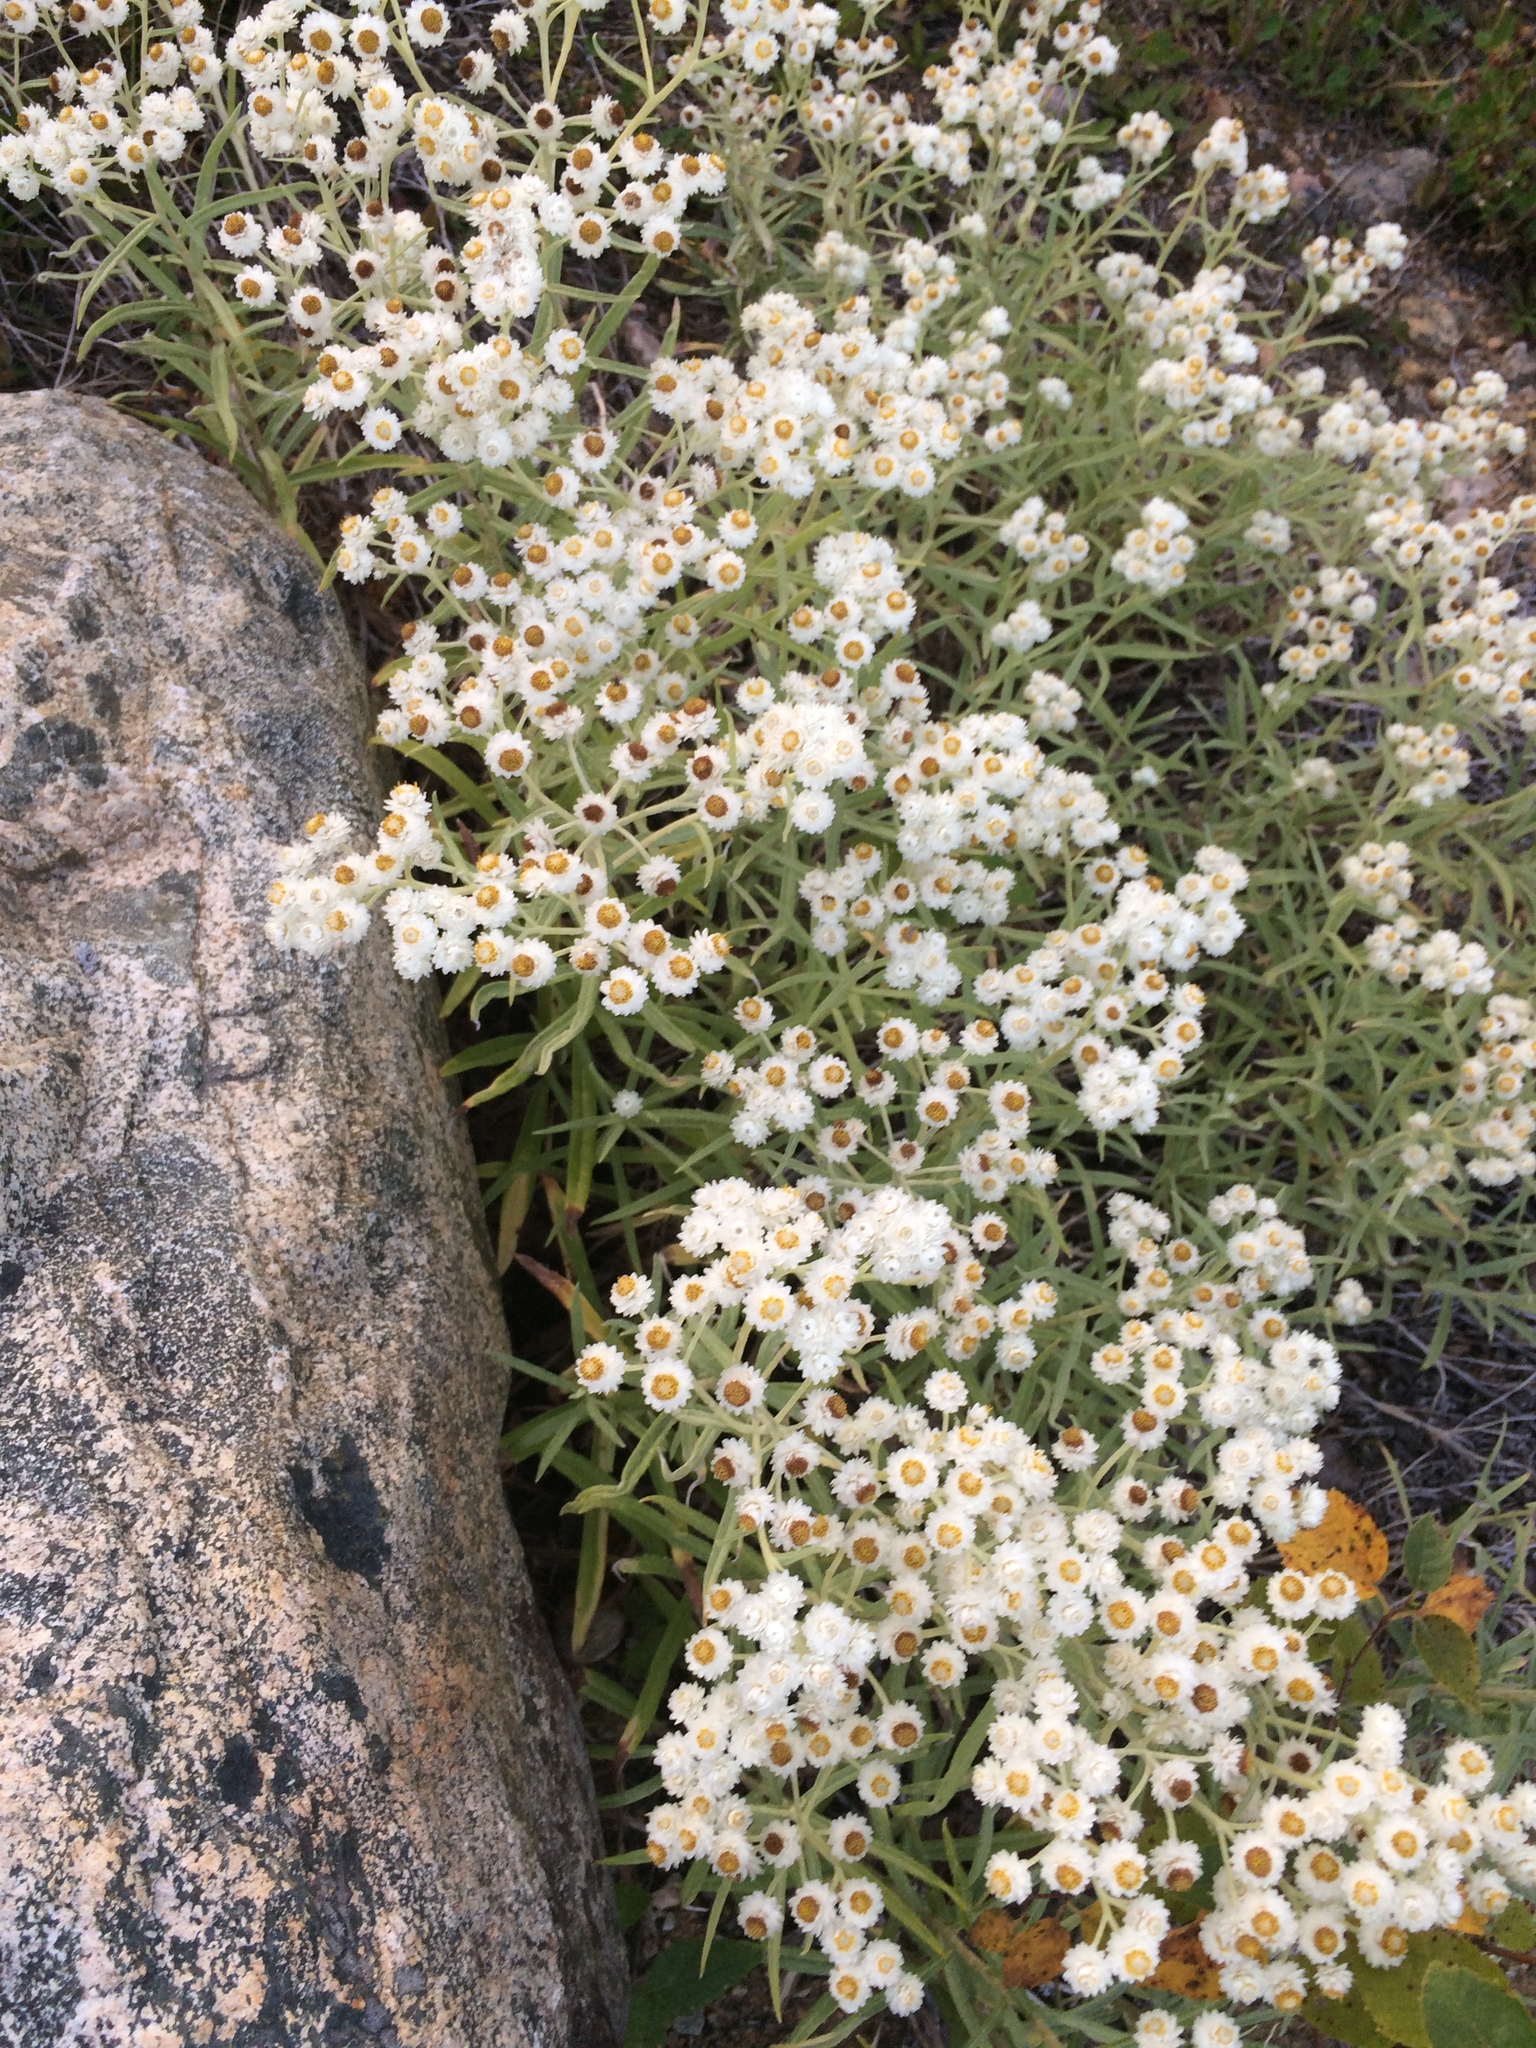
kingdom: Plantae
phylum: Tracheophyta
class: Magnoliopsida
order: Asterales
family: Asteraceae
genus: Anaphalis
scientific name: Anaphalis margaritacea
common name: Pearly everlasting
